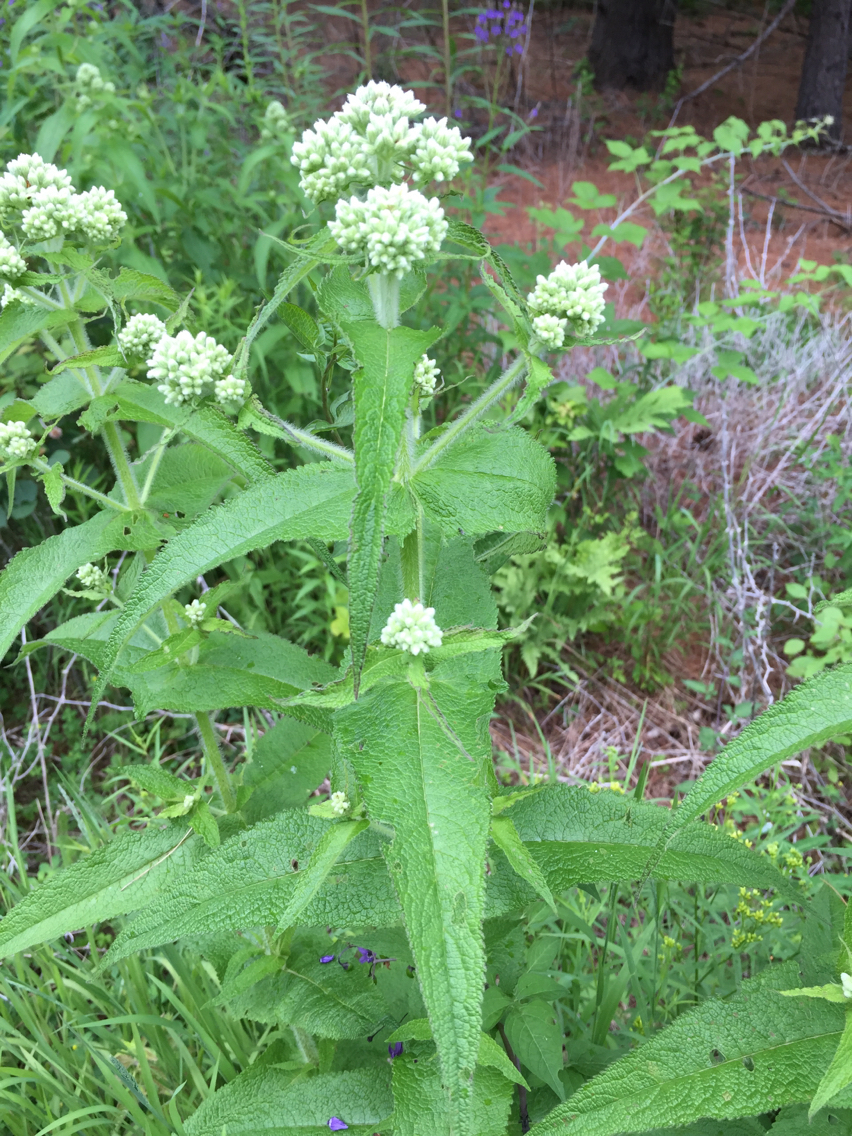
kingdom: Plantae
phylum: Tracheophyta
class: Magnoliopsida
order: Asterales
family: Asteraceae
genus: Eupatorium
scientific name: Eupatorium perfoliatum
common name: Boneset
